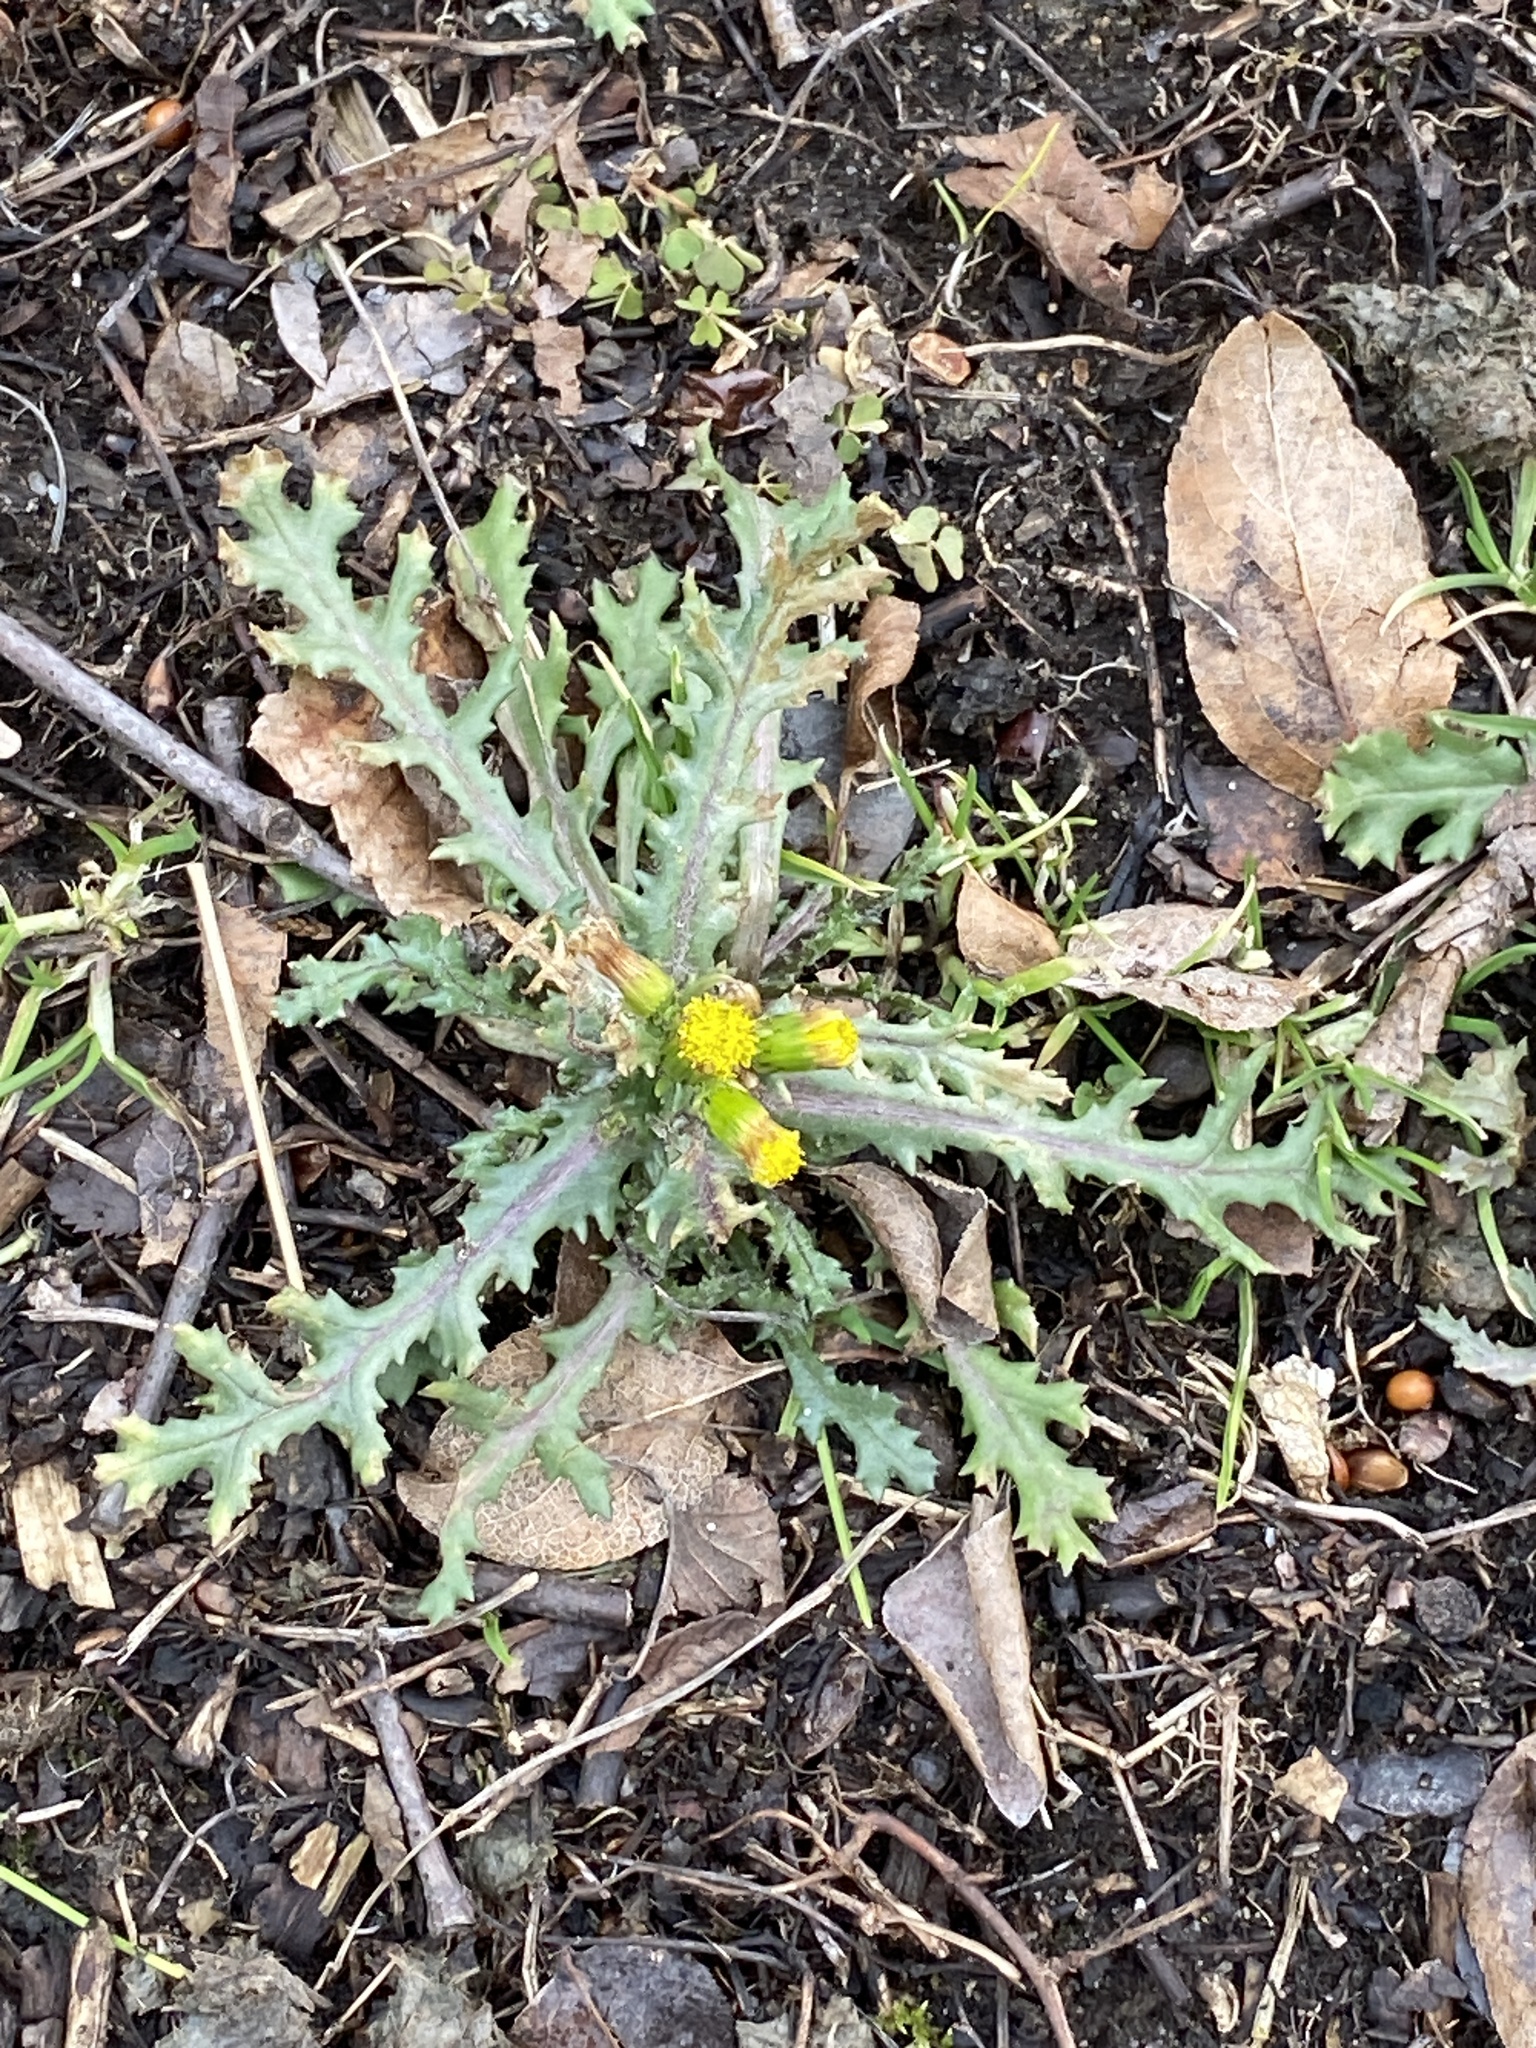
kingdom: Plantae
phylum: Tracheophyta
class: Magnoliopsida
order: Asterales
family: Asteraceae
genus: Senecio
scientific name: Senecio vulgaris
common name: Old-man-in-the-spring
